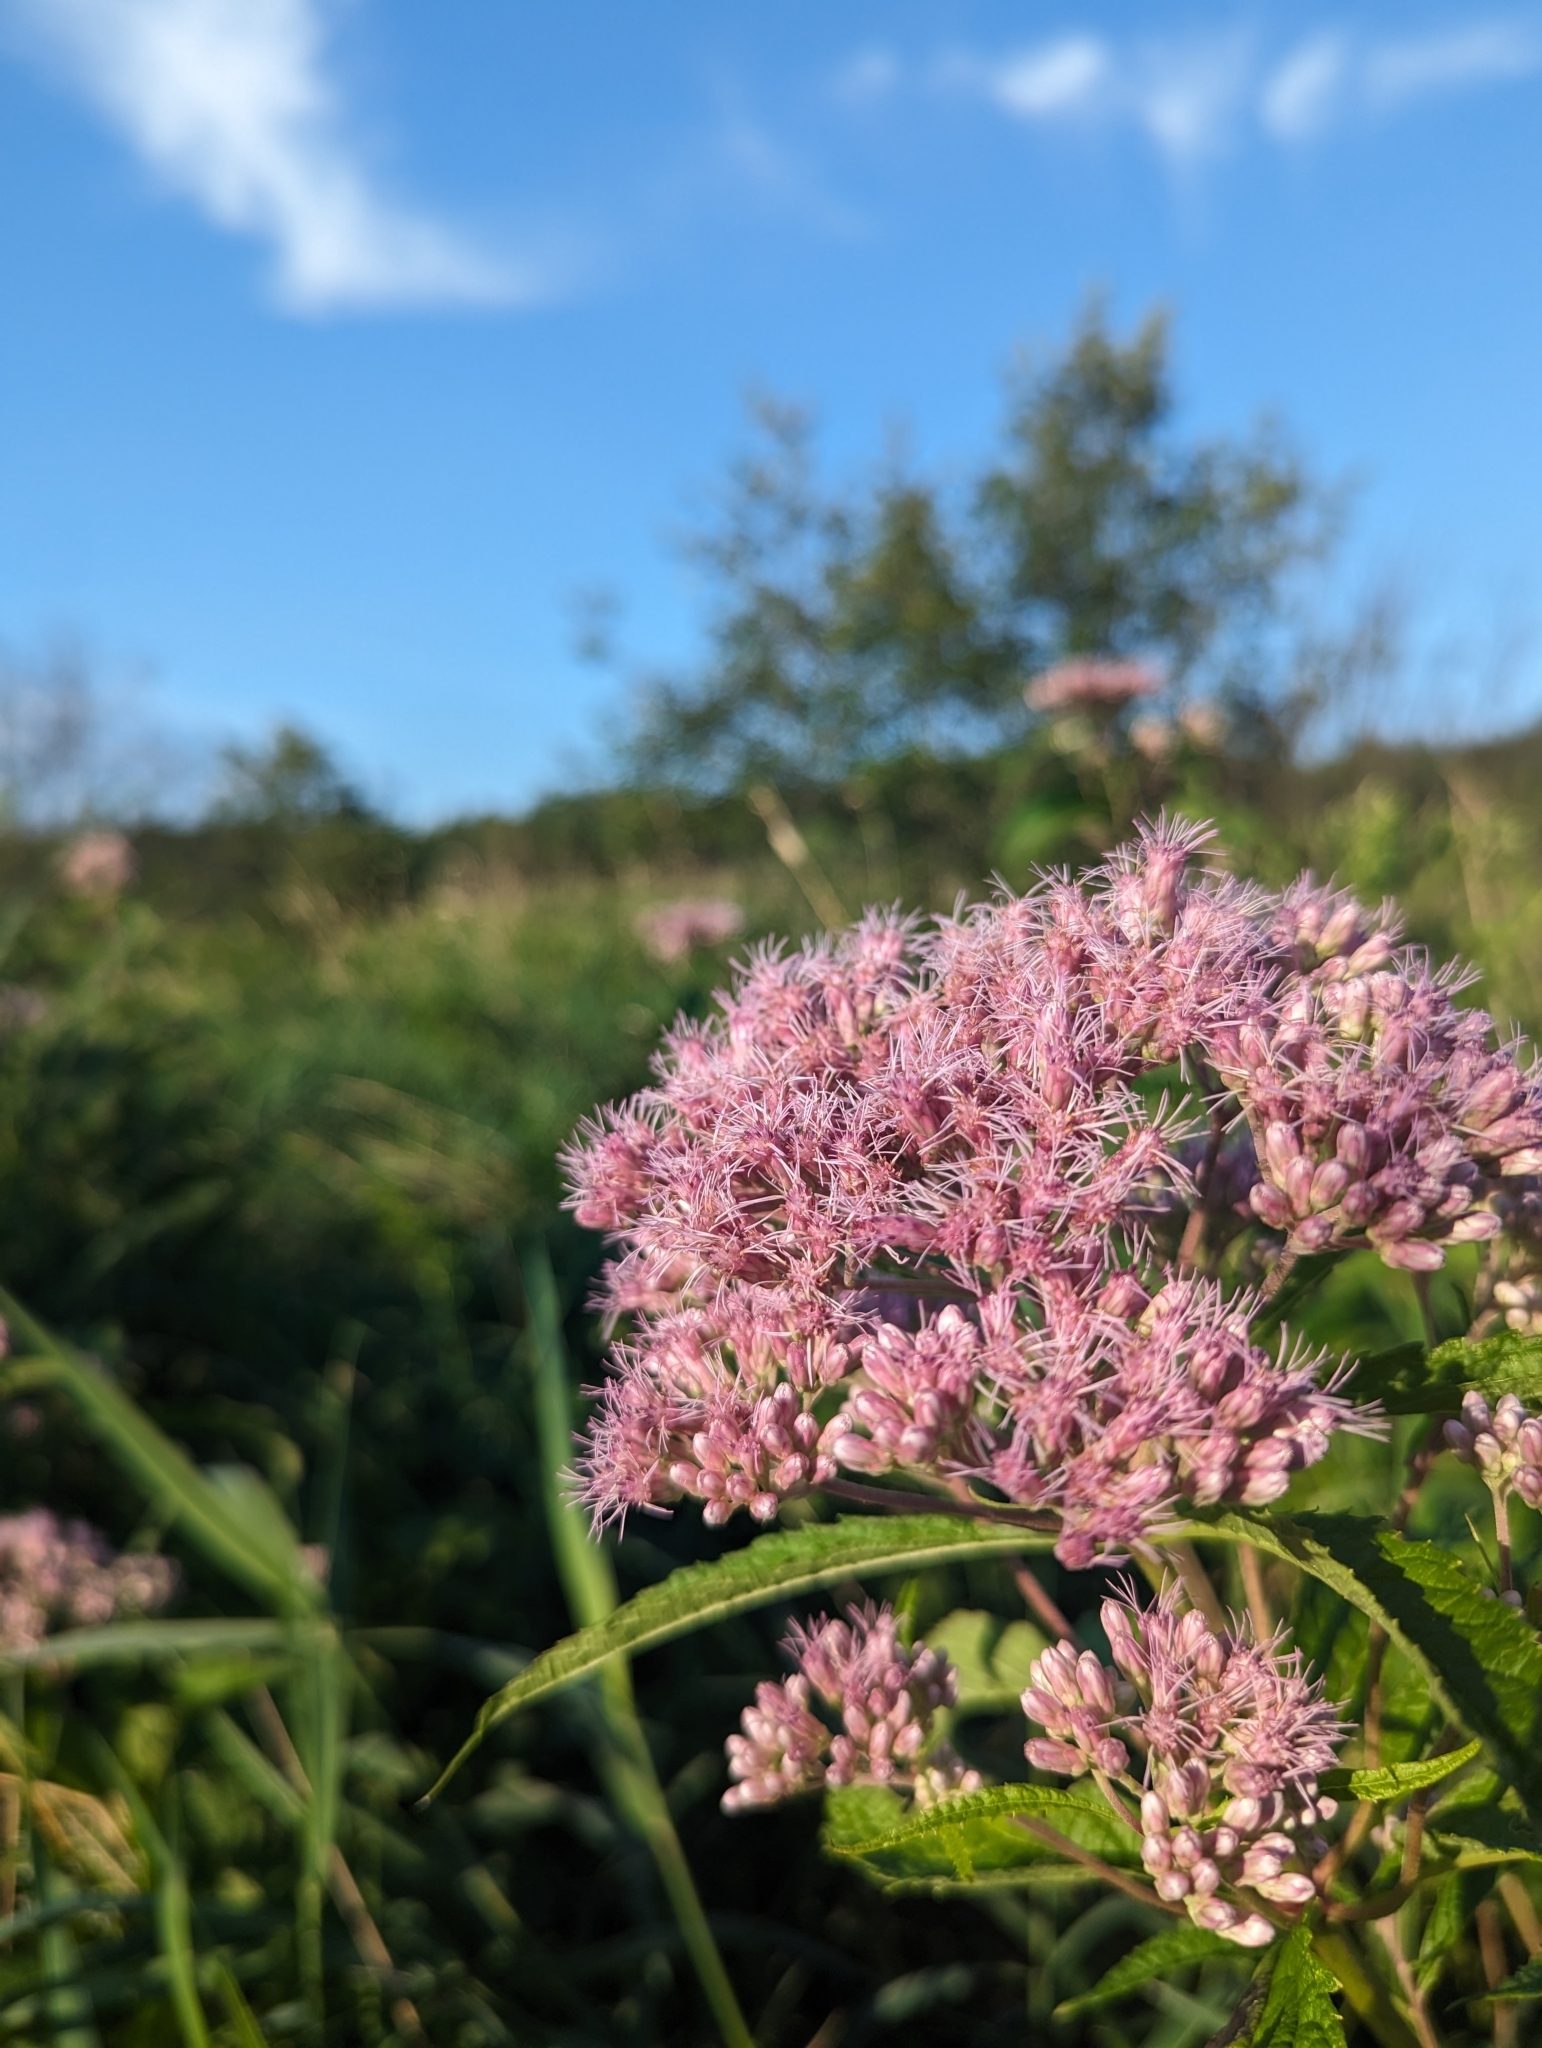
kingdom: Plantae
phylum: Tracheophyta
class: Magnoliopsida
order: Asterales
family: Asteraceae
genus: Eutrochium
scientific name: Eutrochium maculatum
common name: Spotted joe pye weed
